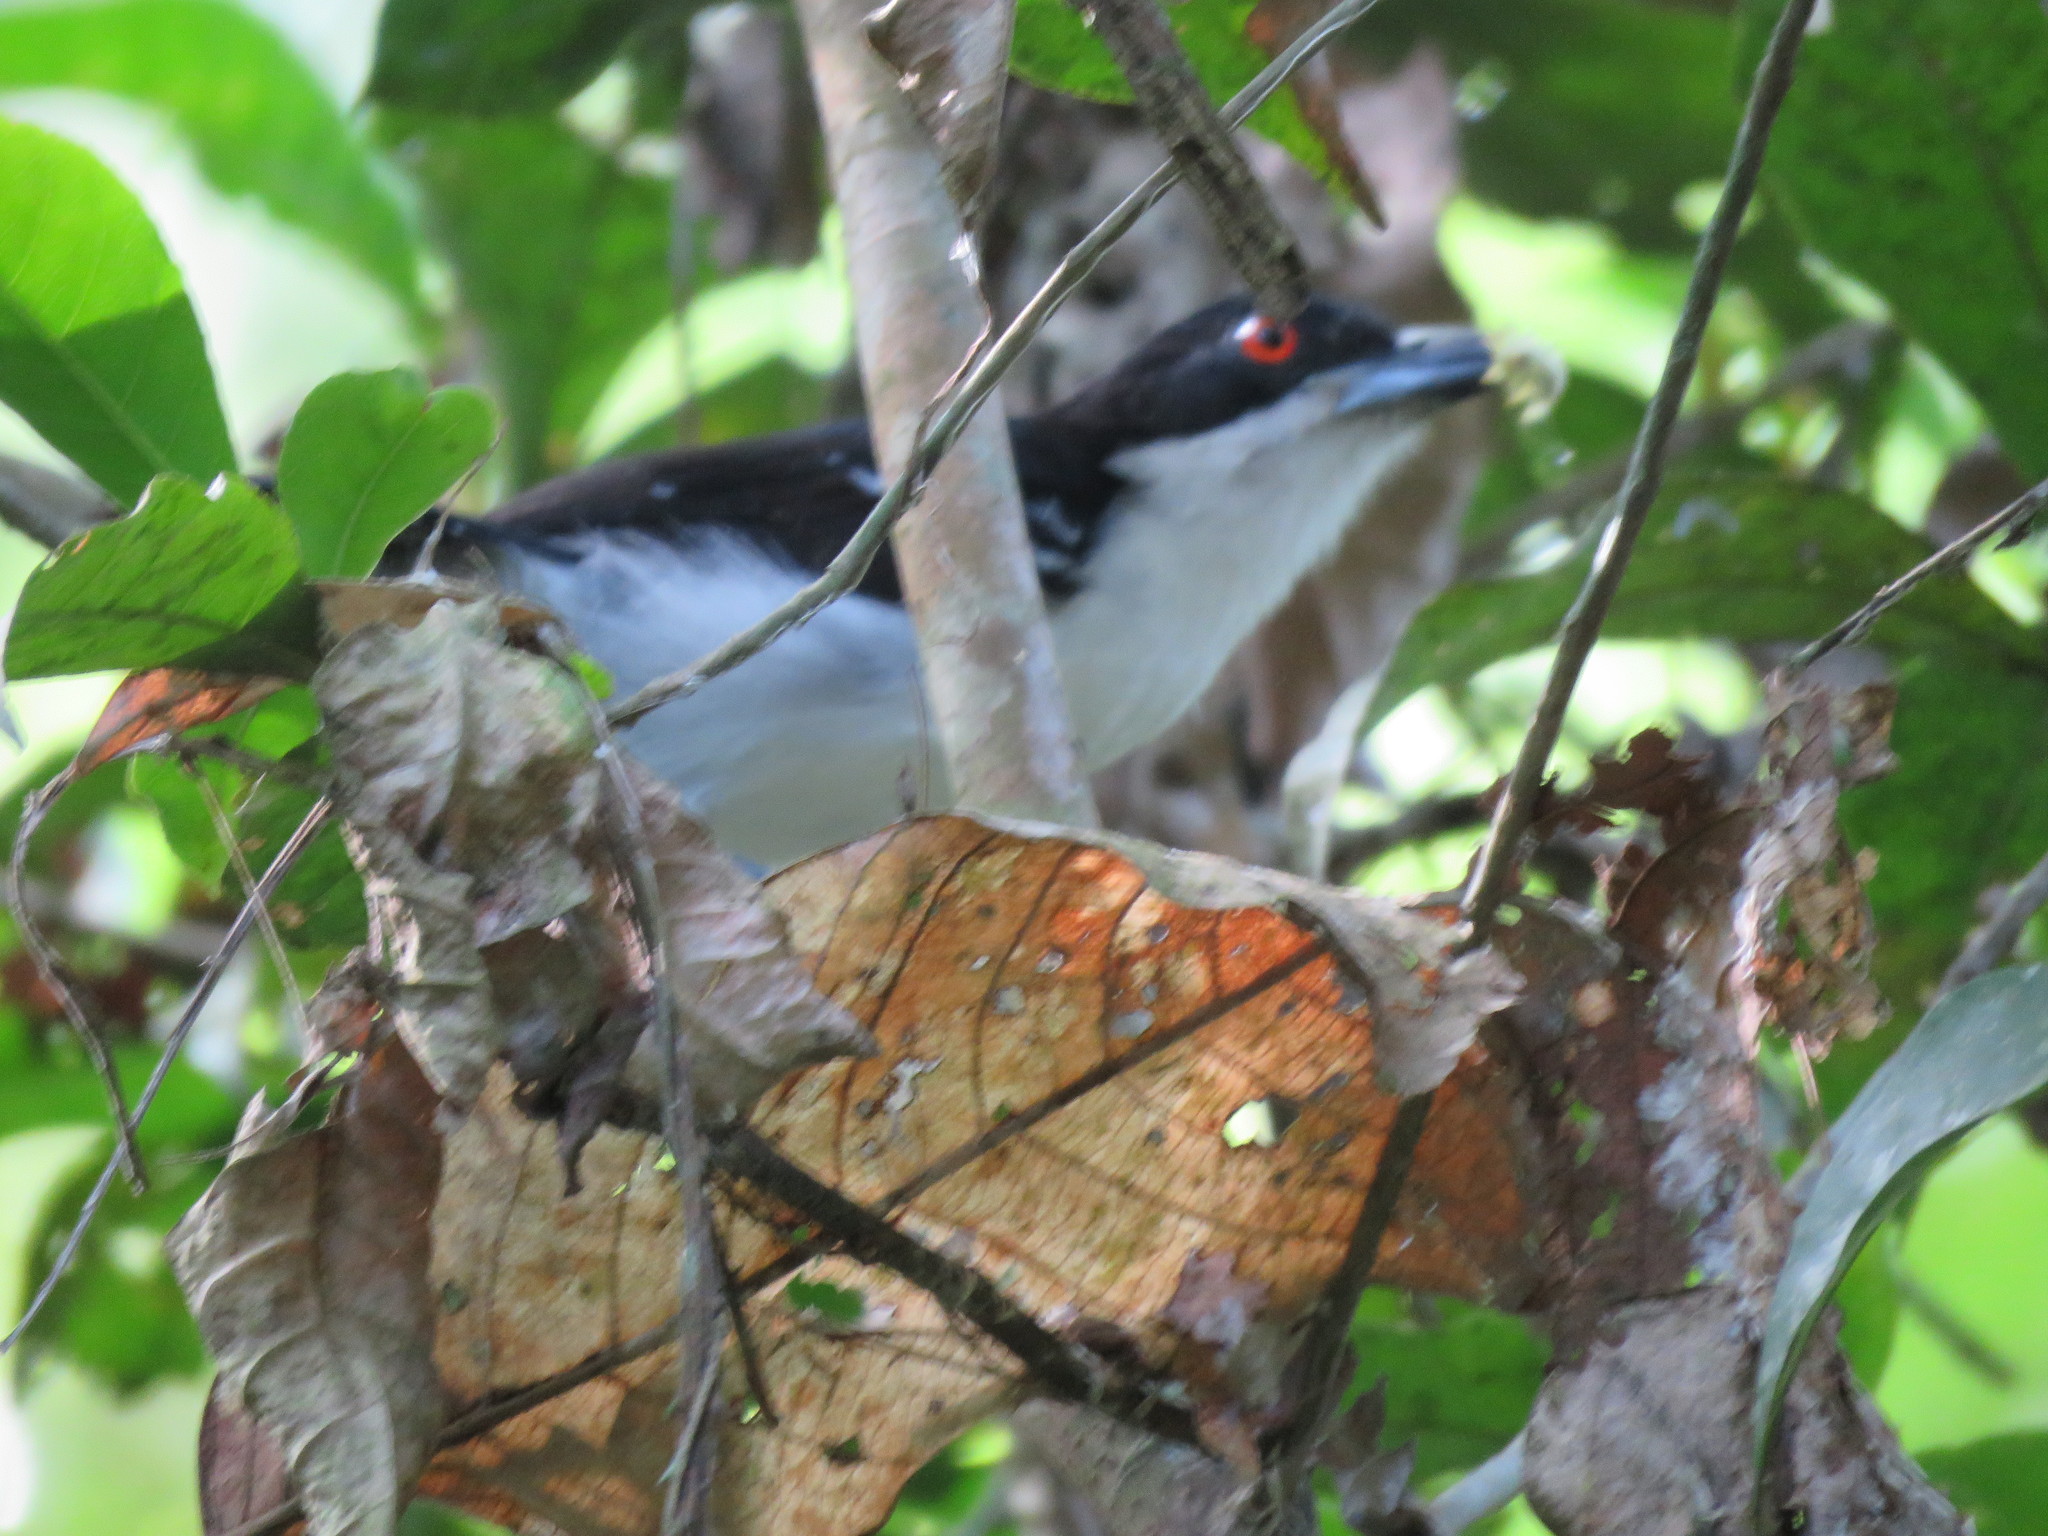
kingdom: Animalia
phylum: Chordata
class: Aves
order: Passeriformes
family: Thamnophilidae
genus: Taraba
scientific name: Taraba major
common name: Great antshrike
